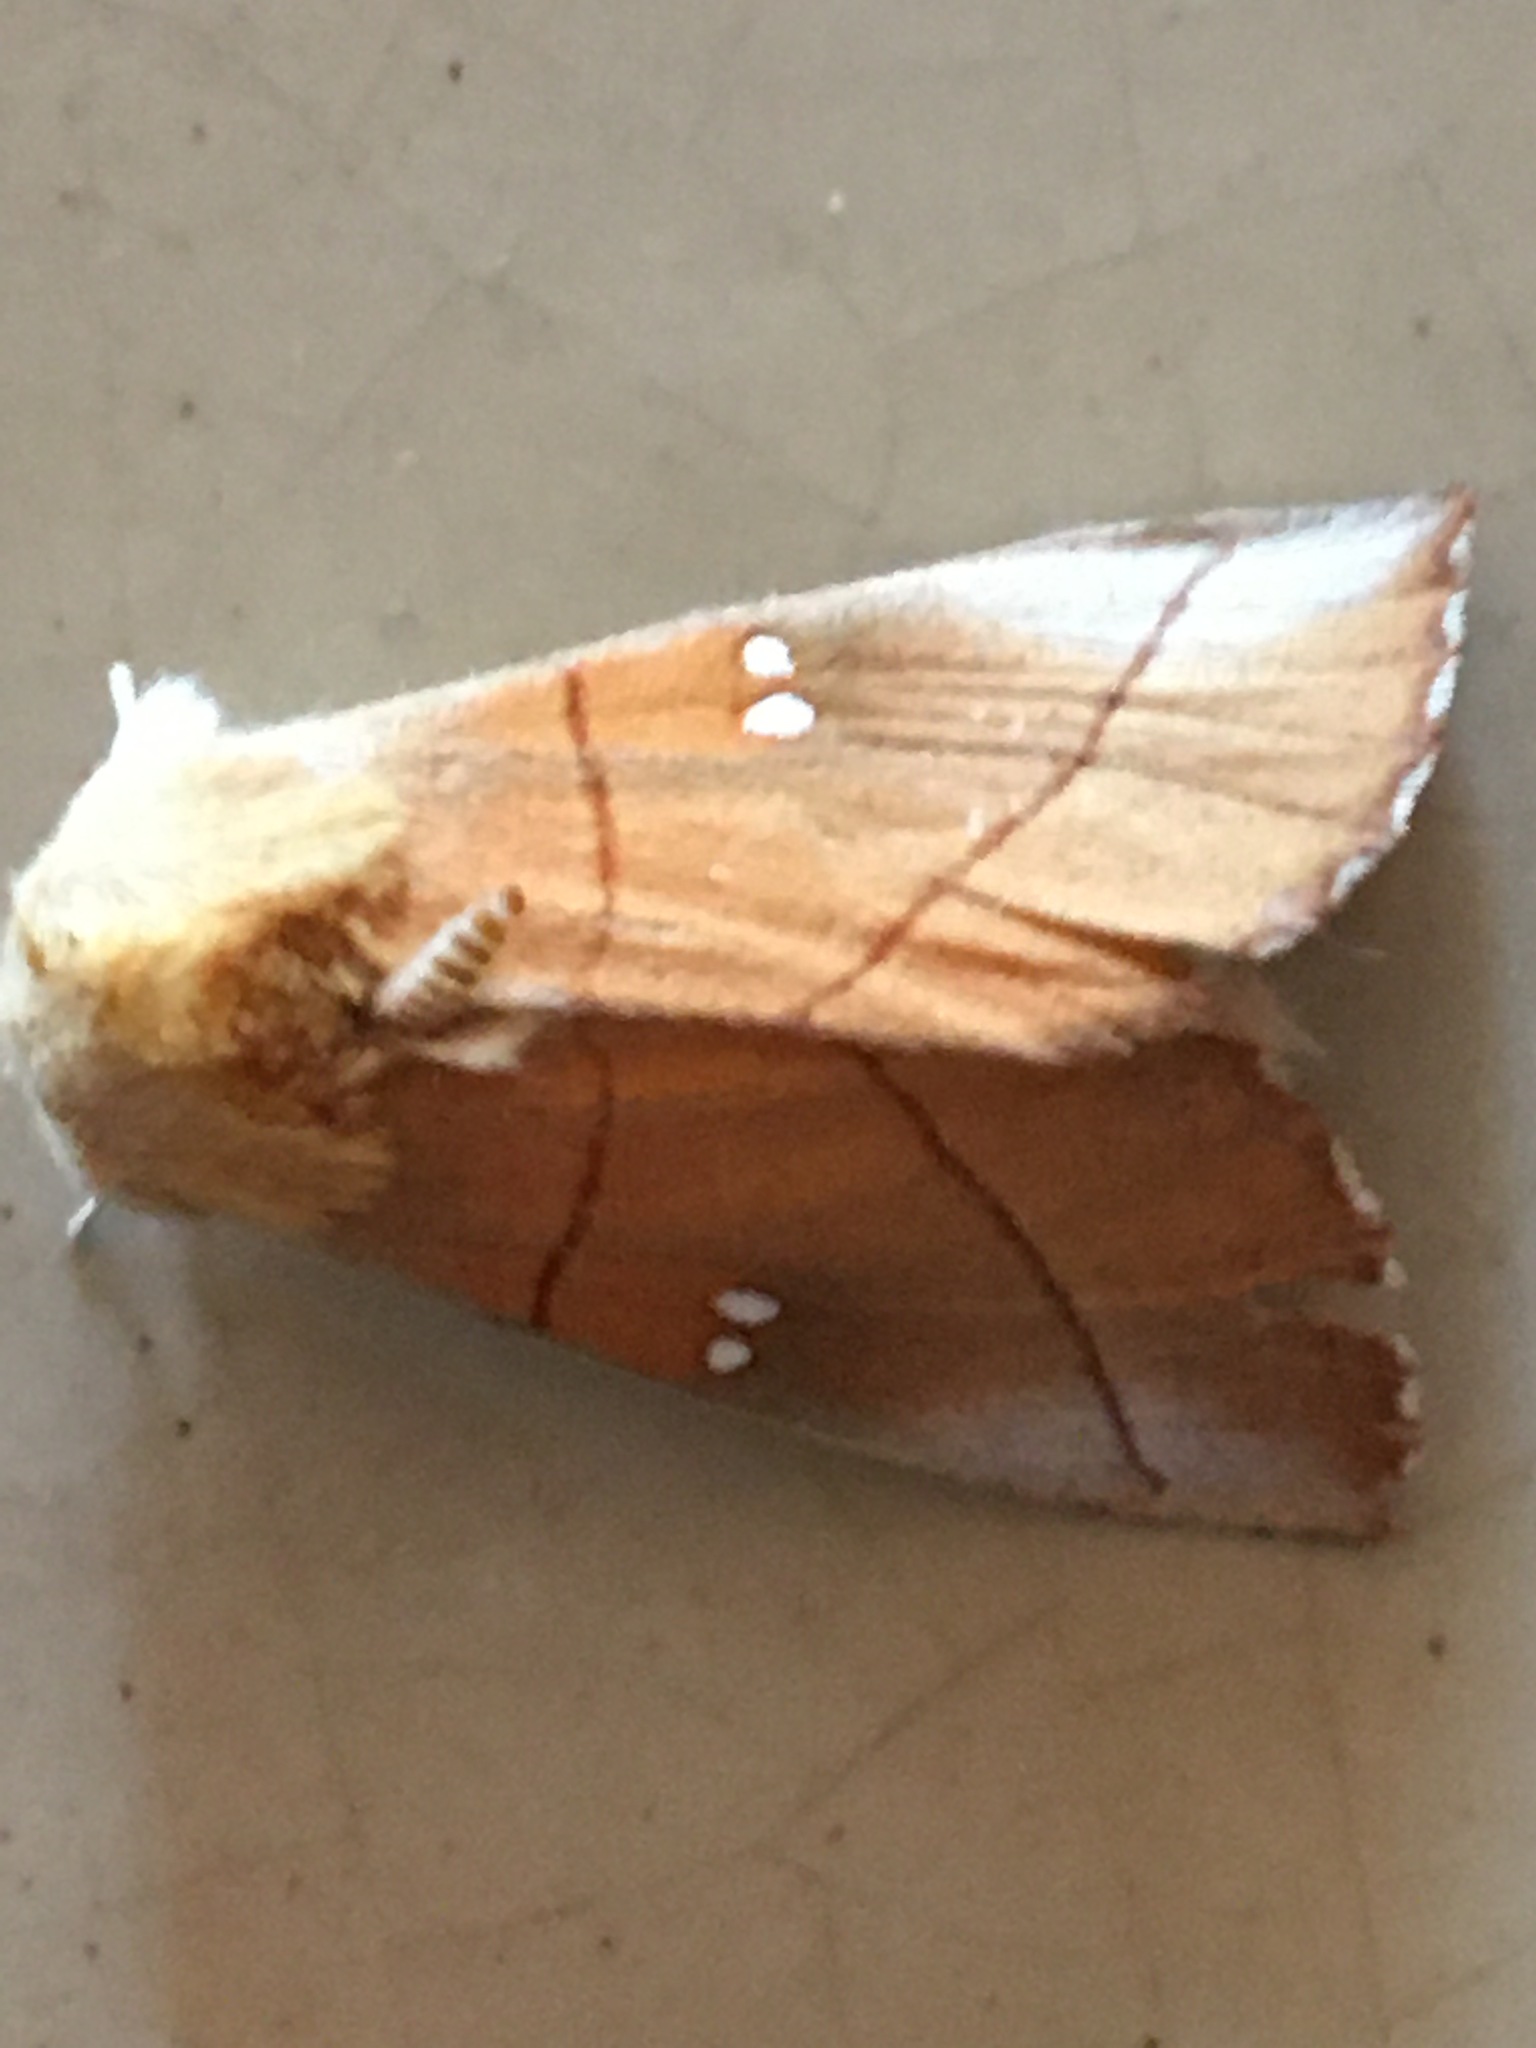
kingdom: Animalia
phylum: Arthropoda
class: Insecta
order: Lepidoptera
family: Notodontidae
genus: Nadata
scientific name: Nadata gibbosa
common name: White-dotted prominent
